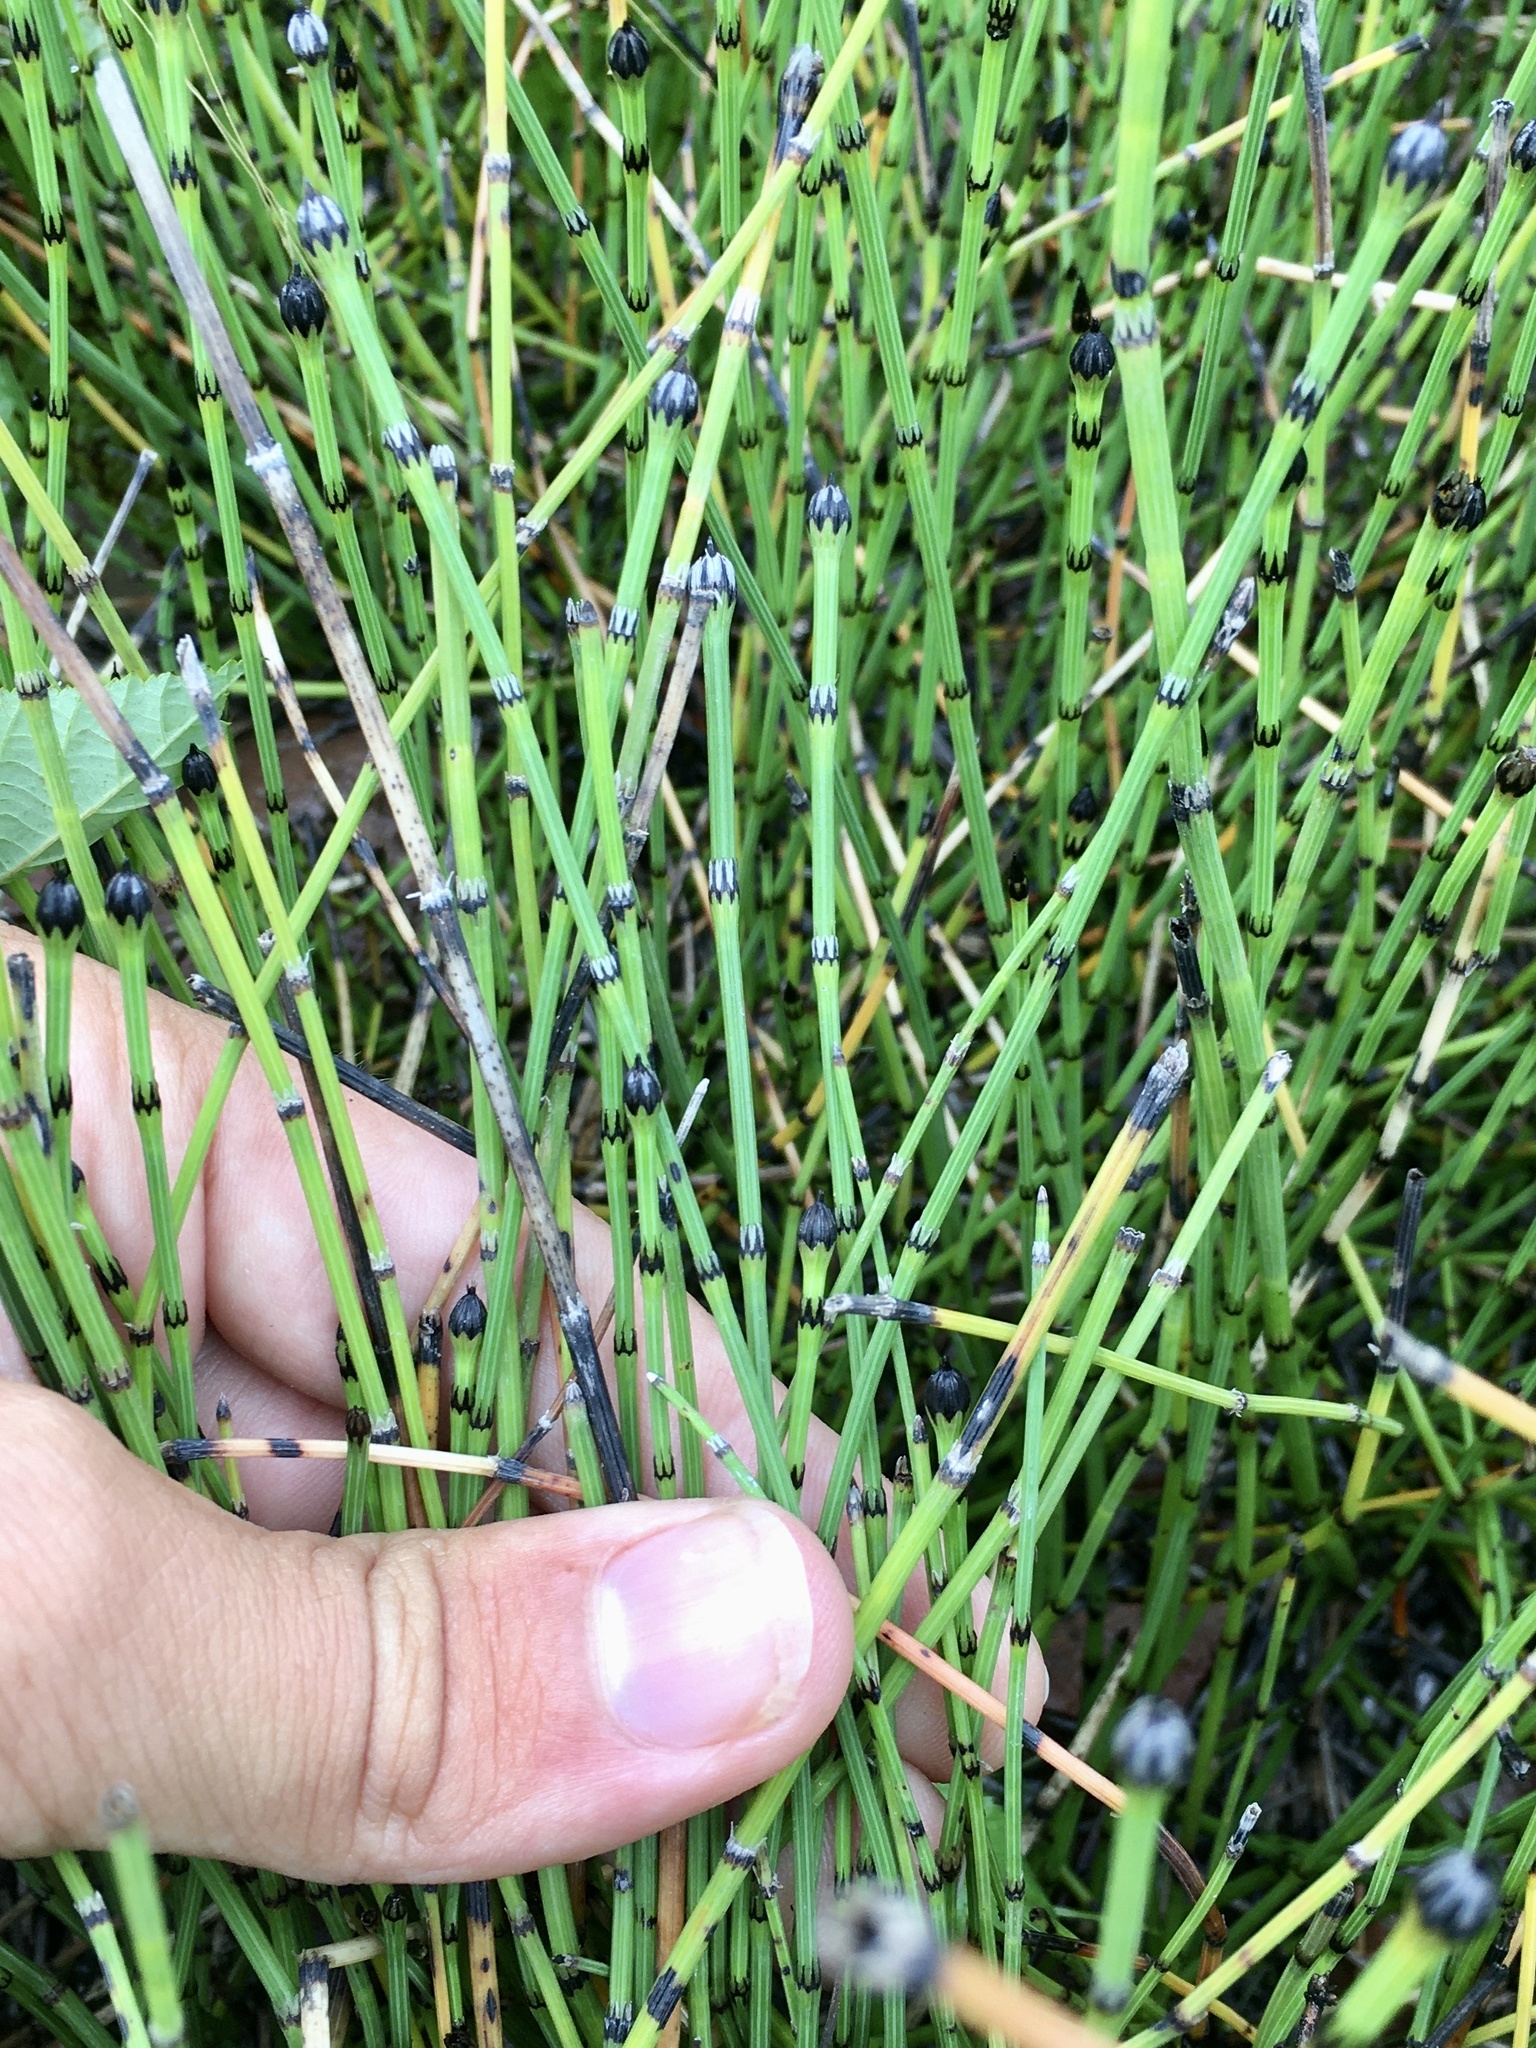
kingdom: Plantae
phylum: Tracheophyta
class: Polypodiopsida
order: Equisetales
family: Equisetaceae
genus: Equisetum
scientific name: Equisetum variegatum
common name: Variegated horsetail
